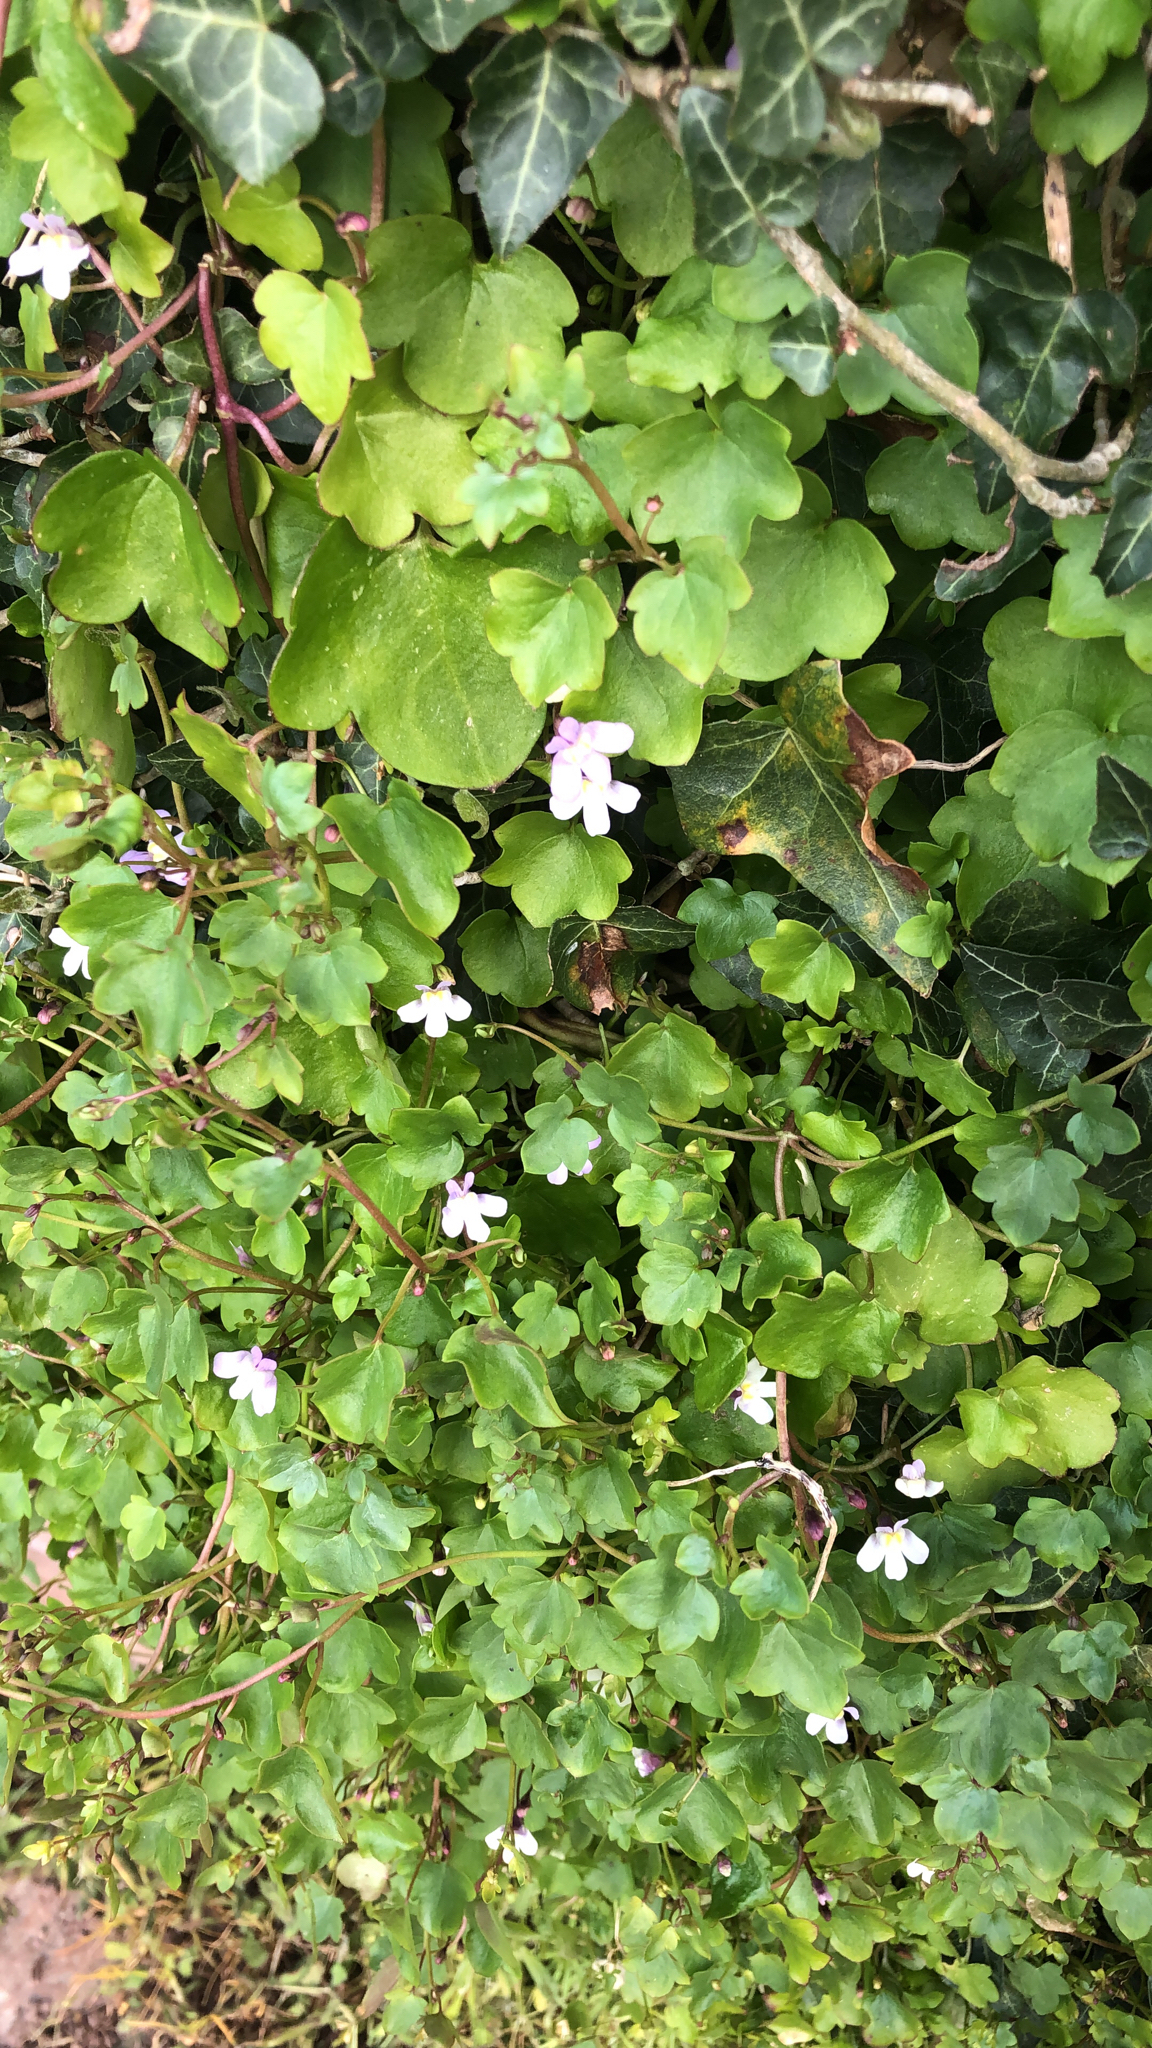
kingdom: Plantae
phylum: Tracheophyta
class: Magnoliopsida
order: Lamiales
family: Plantaginaceae
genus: Cymbalaria
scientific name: Cymbalaria muralis
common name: Ivy-leaved toadflax
